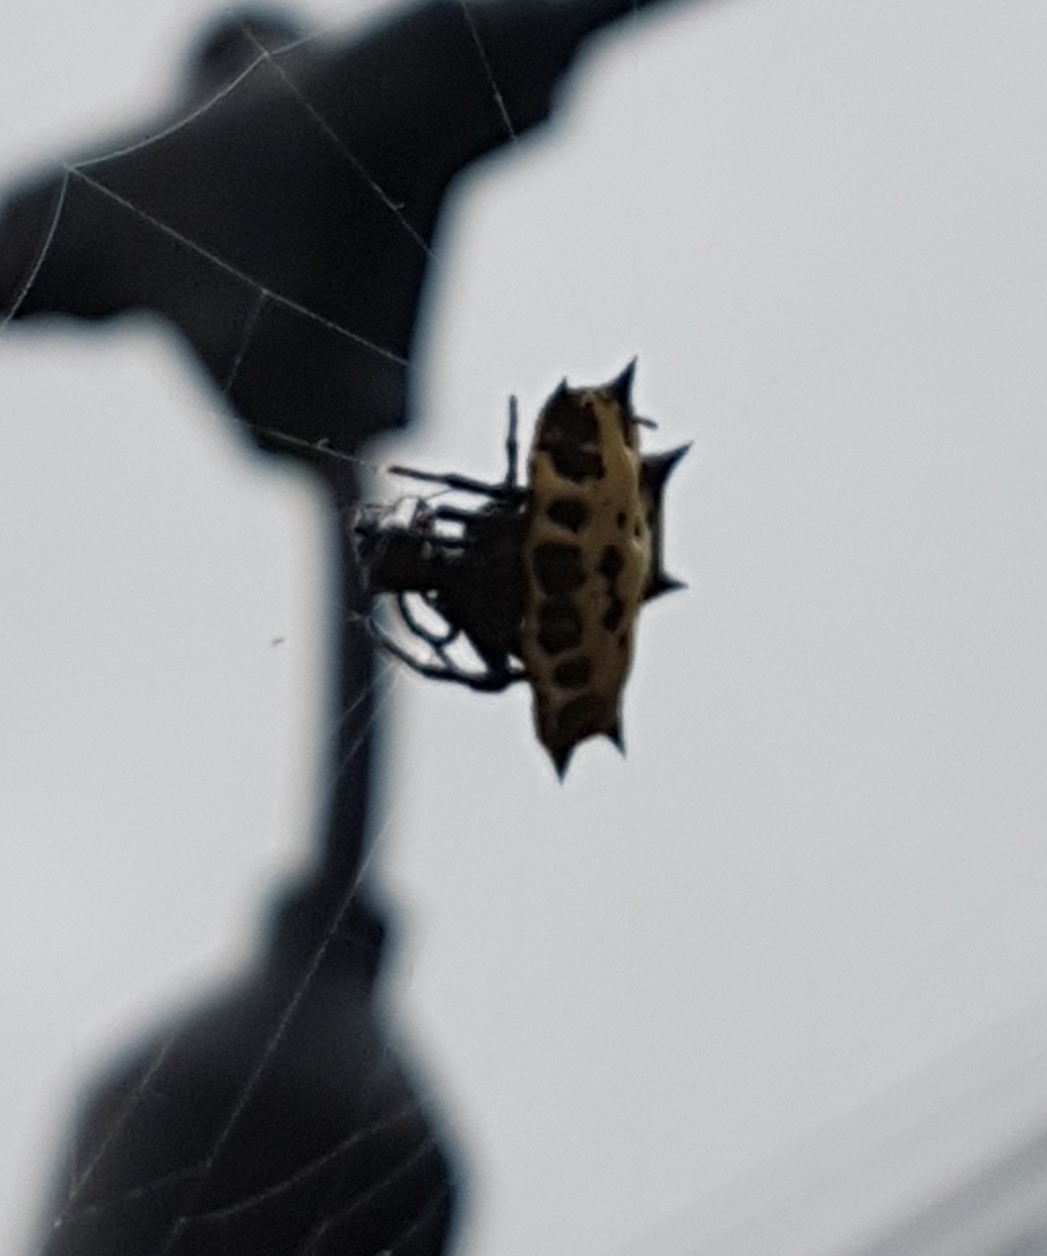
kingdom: Animalia
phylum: Arthropoda
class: Arachnida
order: Araneae
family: Araneidae
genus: Gasteracantha
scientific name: Gasteracantha cancriformis
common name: Orb weavers
